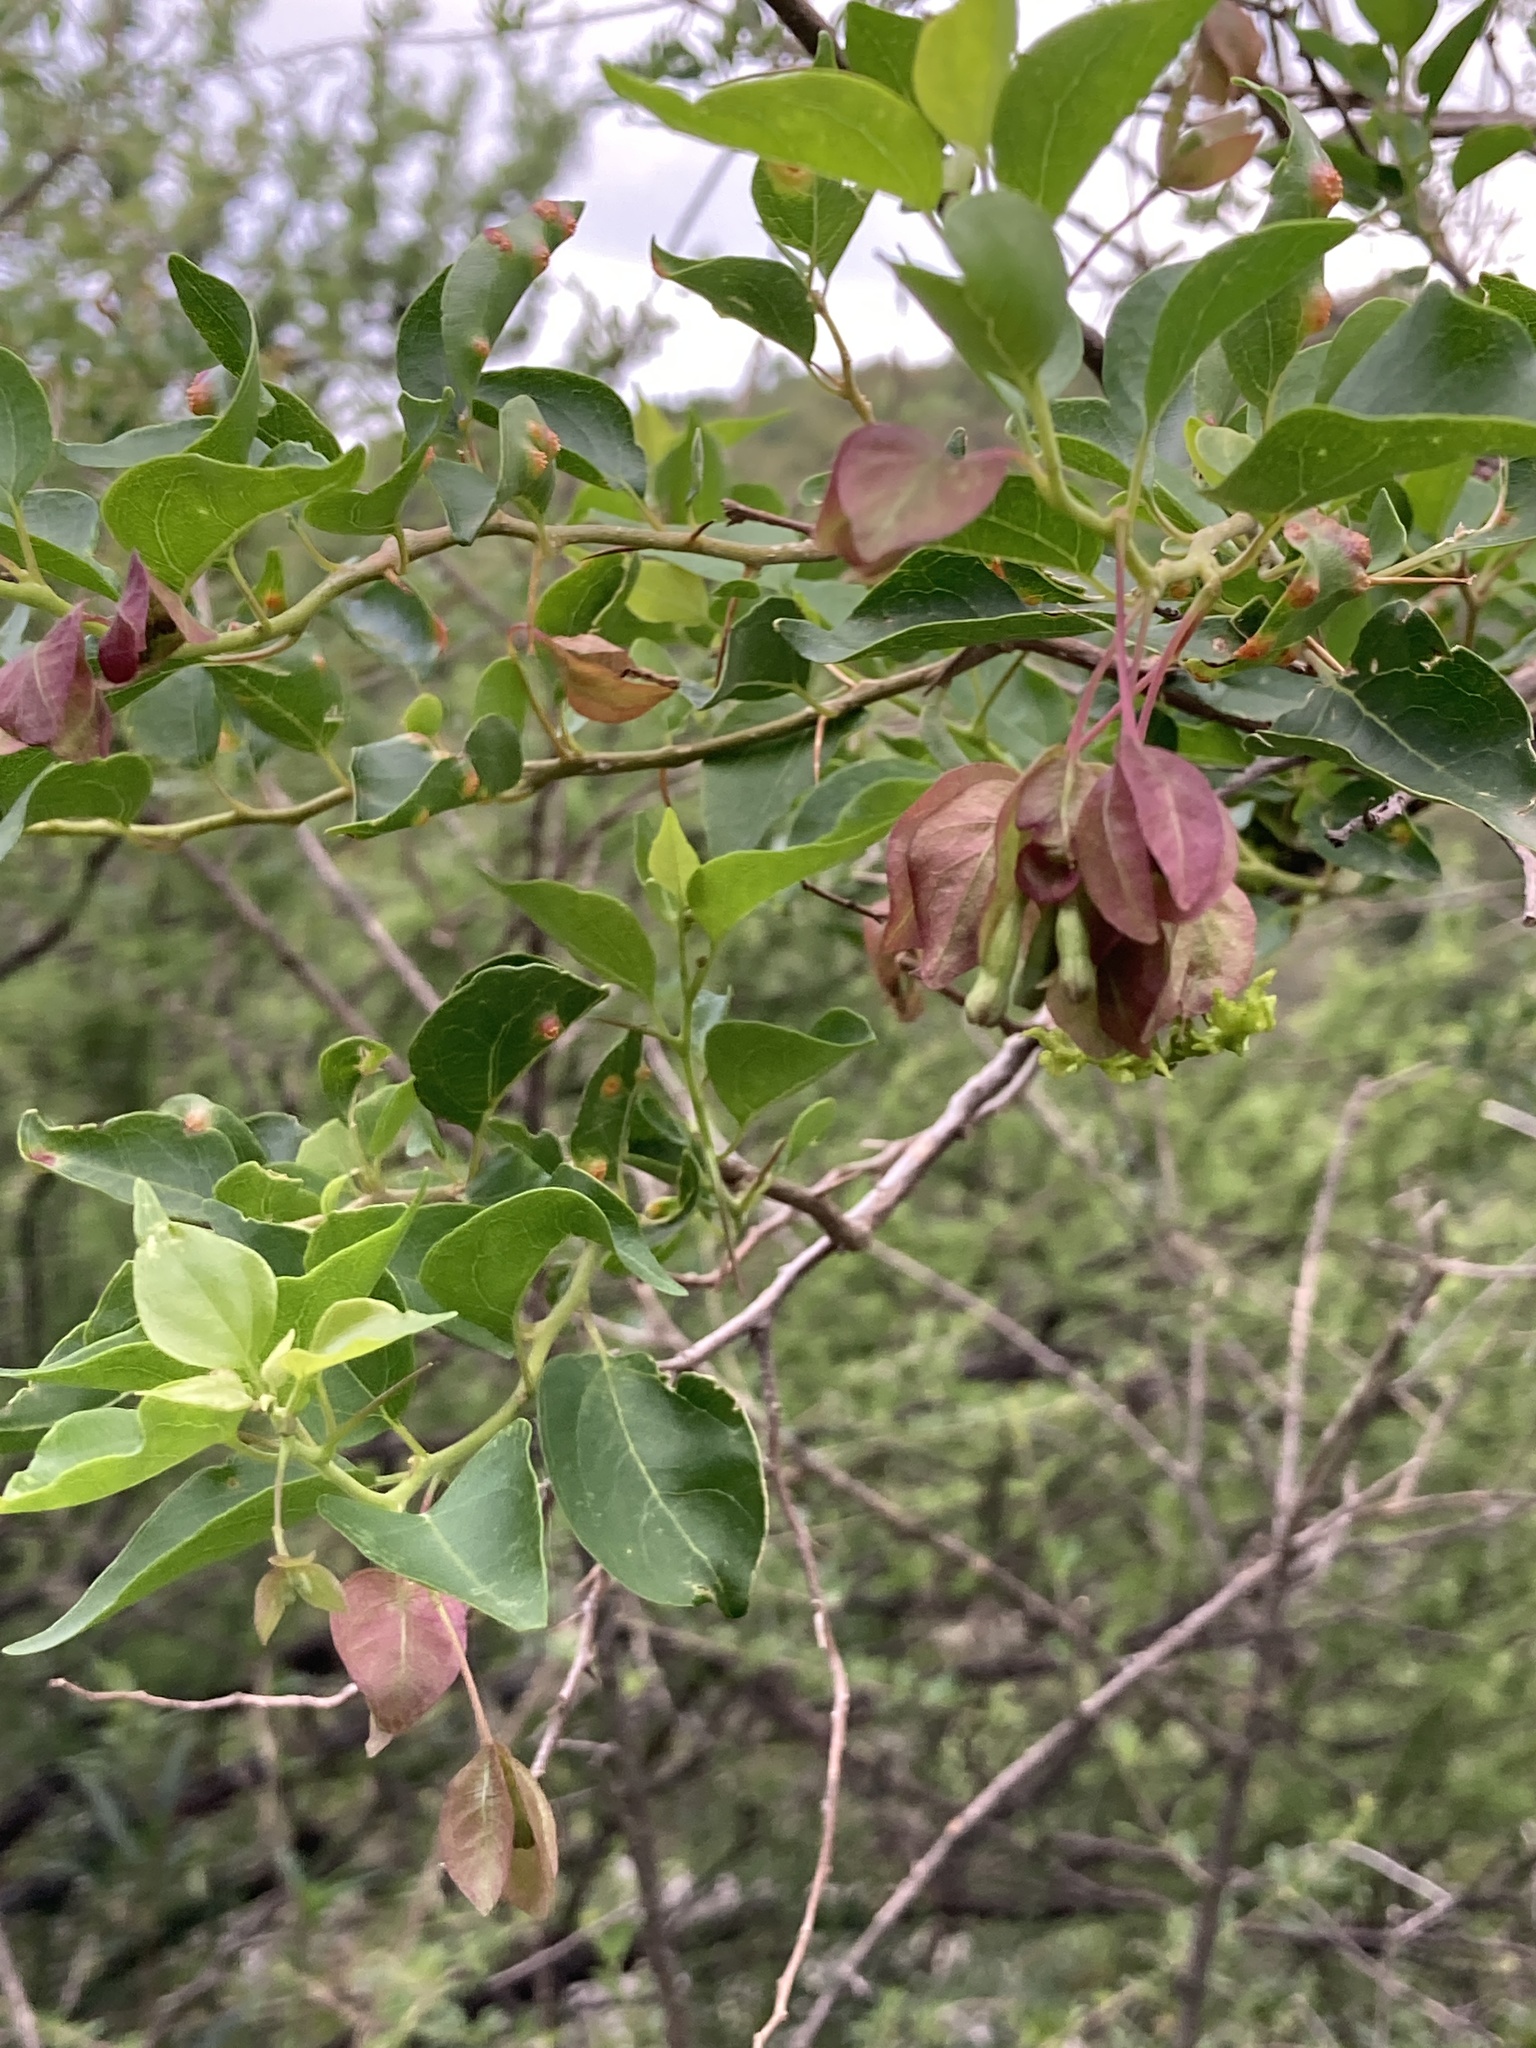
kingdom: Plantae
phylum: Tracheophyta
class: Magnoliopsida
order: Caryophyllales
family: Nyctaginaceae
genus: Bougainvillea
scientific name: Bougainvillea stipitata
